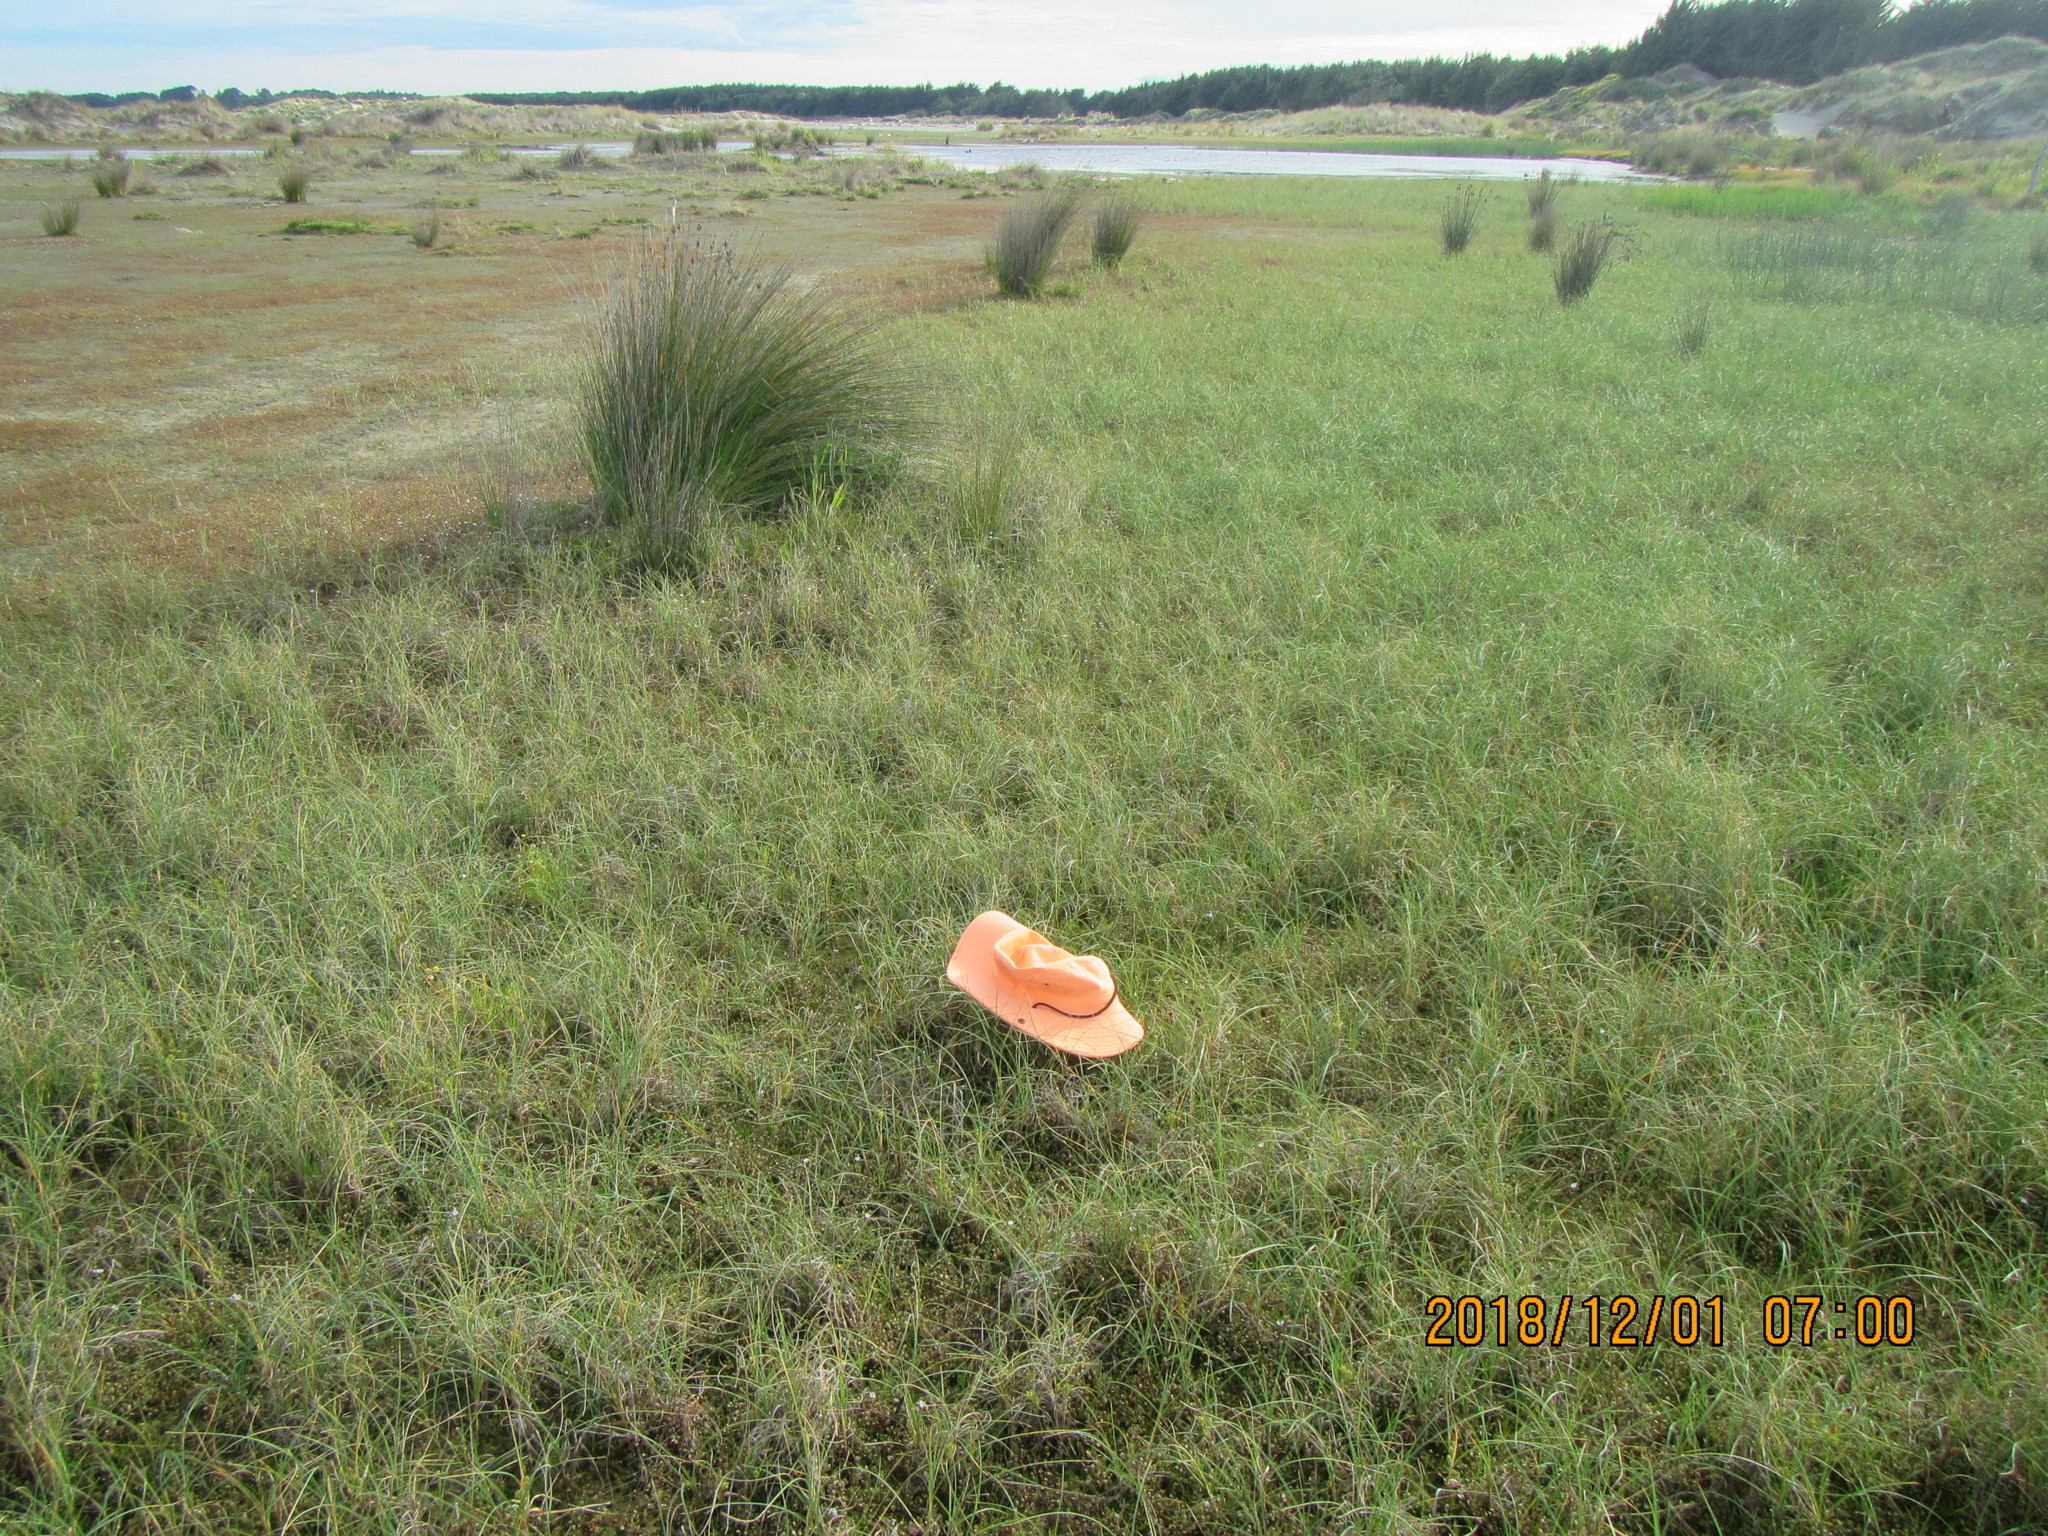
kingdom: Plantae
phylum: Tracheophyta
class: Liliopsida
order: Poales
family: Cyperaceae
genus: Carex
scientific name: Carex pumila
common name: Dwarf sedge
